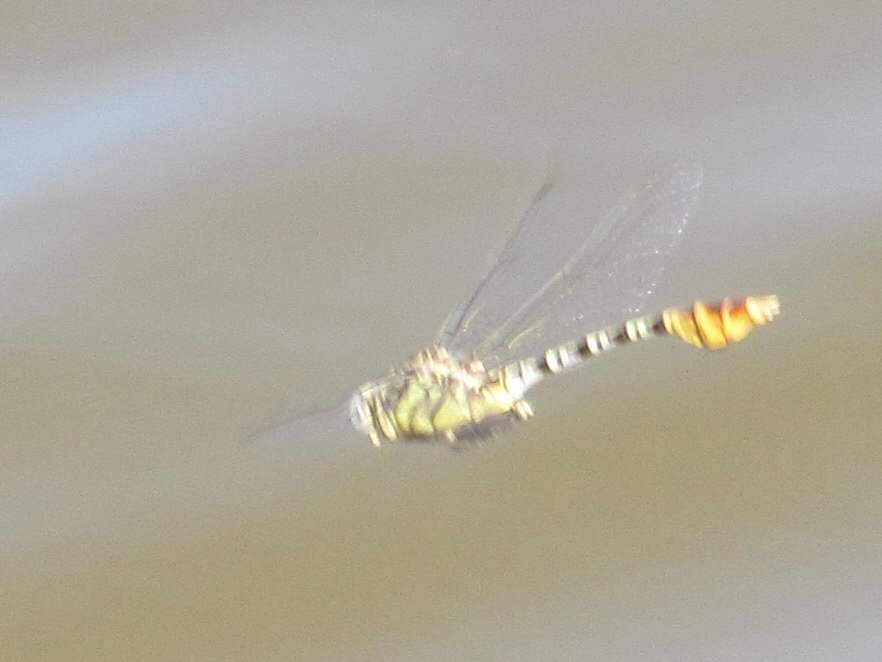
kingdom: Animalia
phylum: Arthropoda
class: Insecta
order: Odonata
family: Gomphidae
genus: Dromogomphus
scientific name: Dromogomphus spoliatus
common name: Flag-tailed spinyleg
